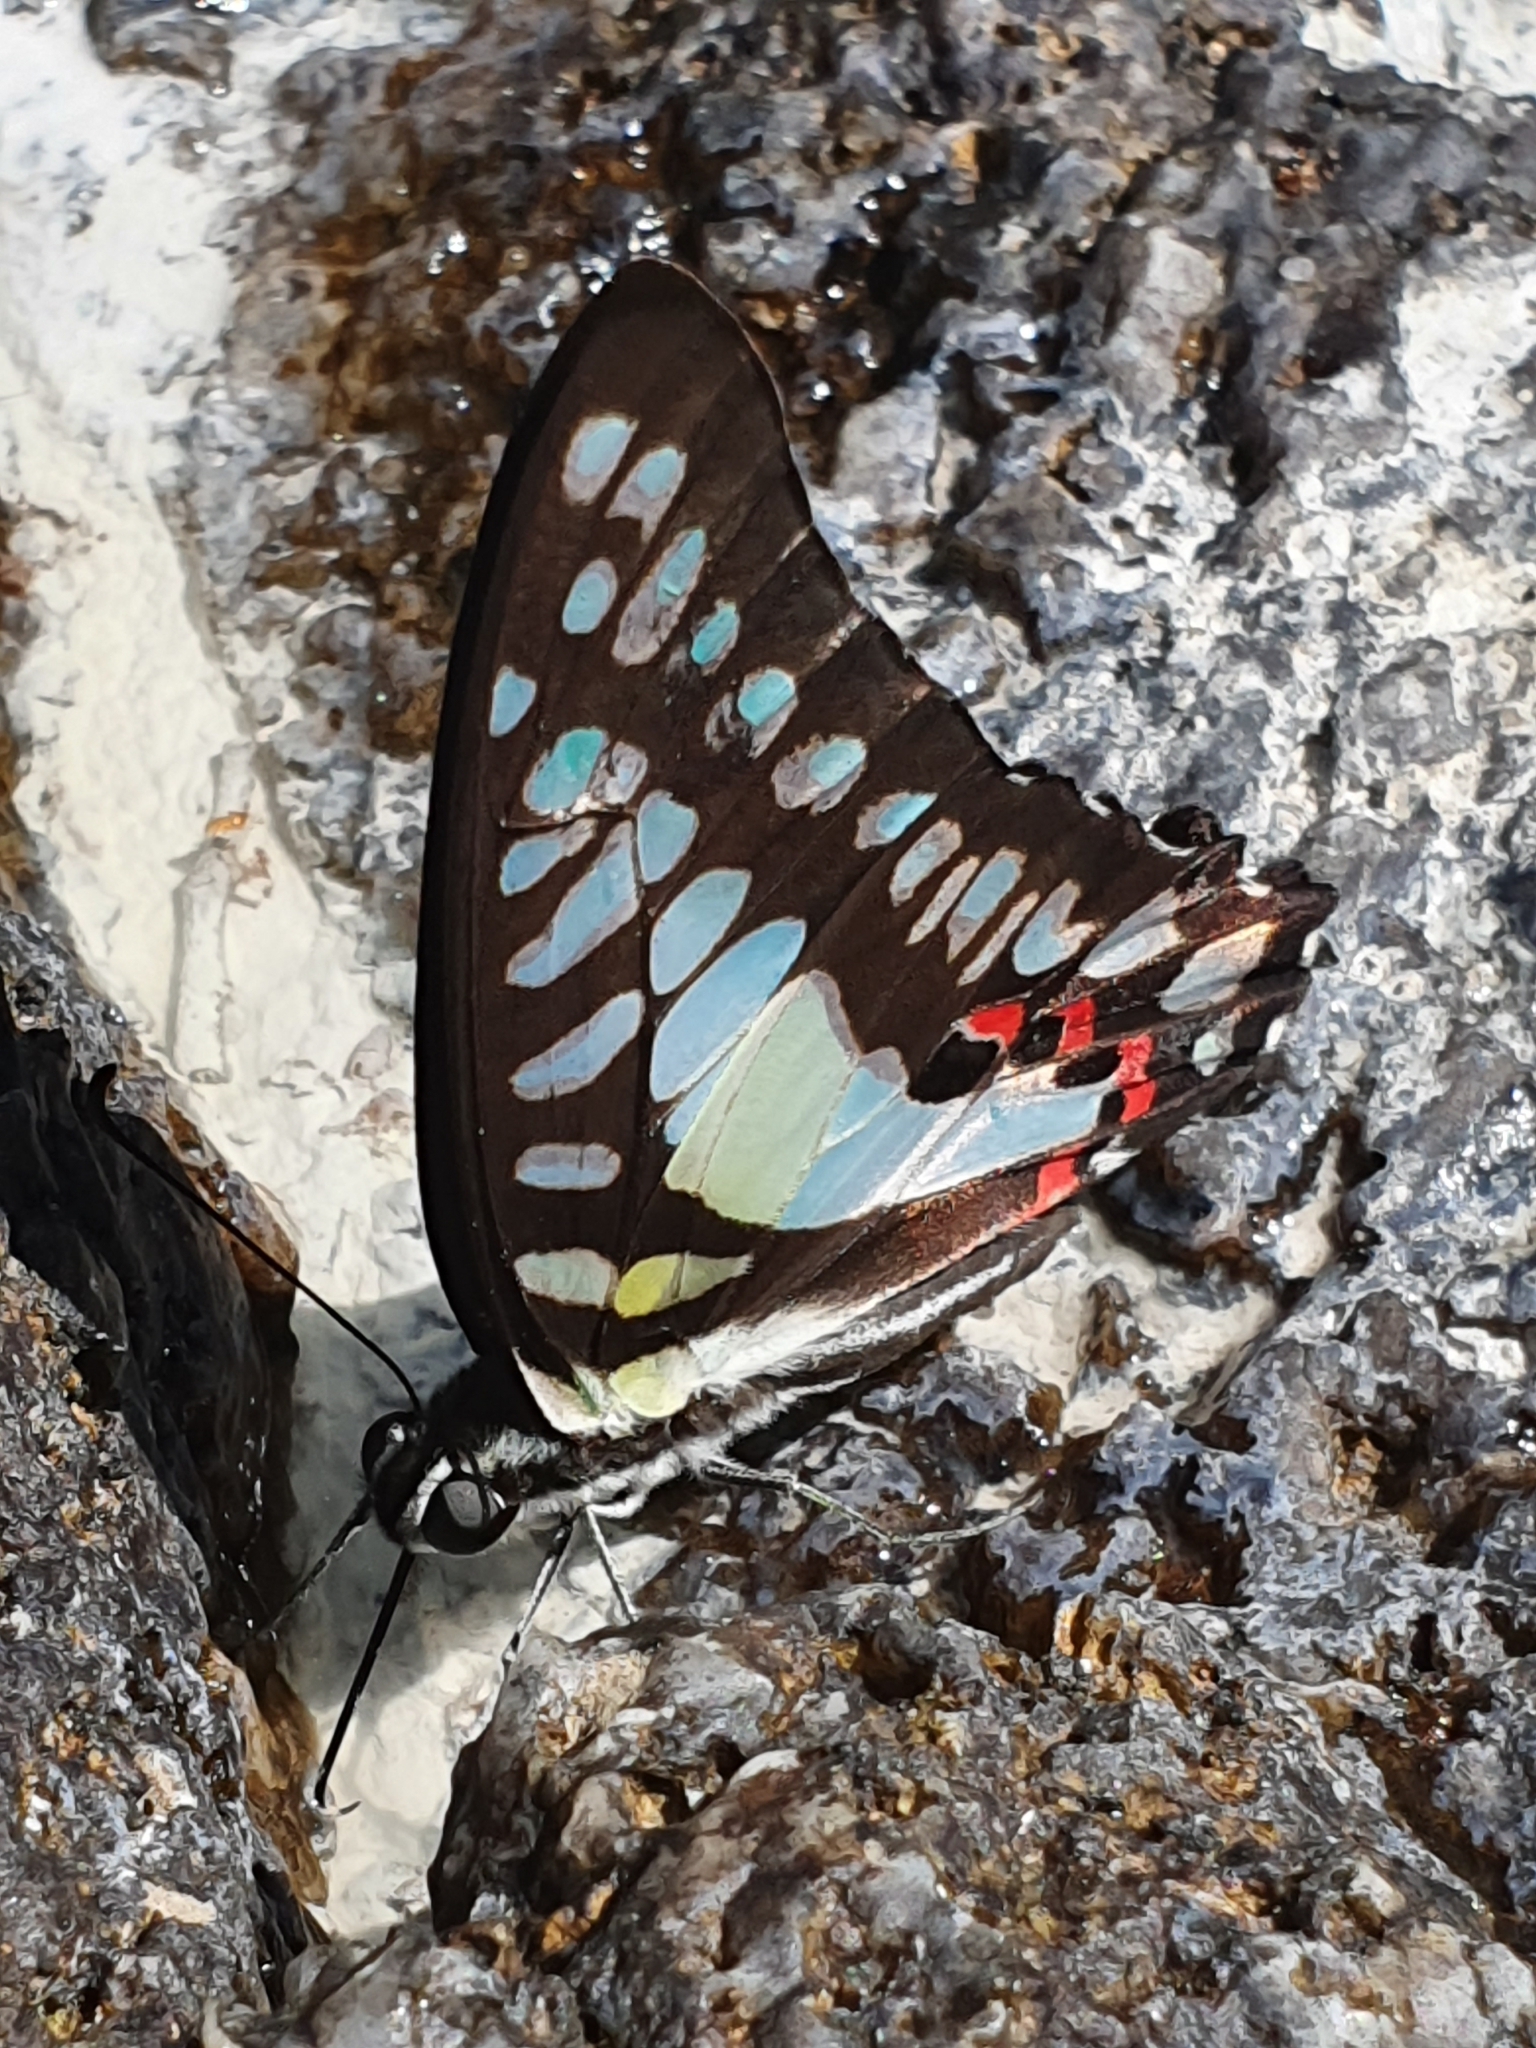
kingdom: Animalia
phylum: Arthropoda
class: Insecta
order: Lepidoptera
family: Papilionidae
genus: Graphium
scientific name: Graphium evemon
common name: Lesser jay
